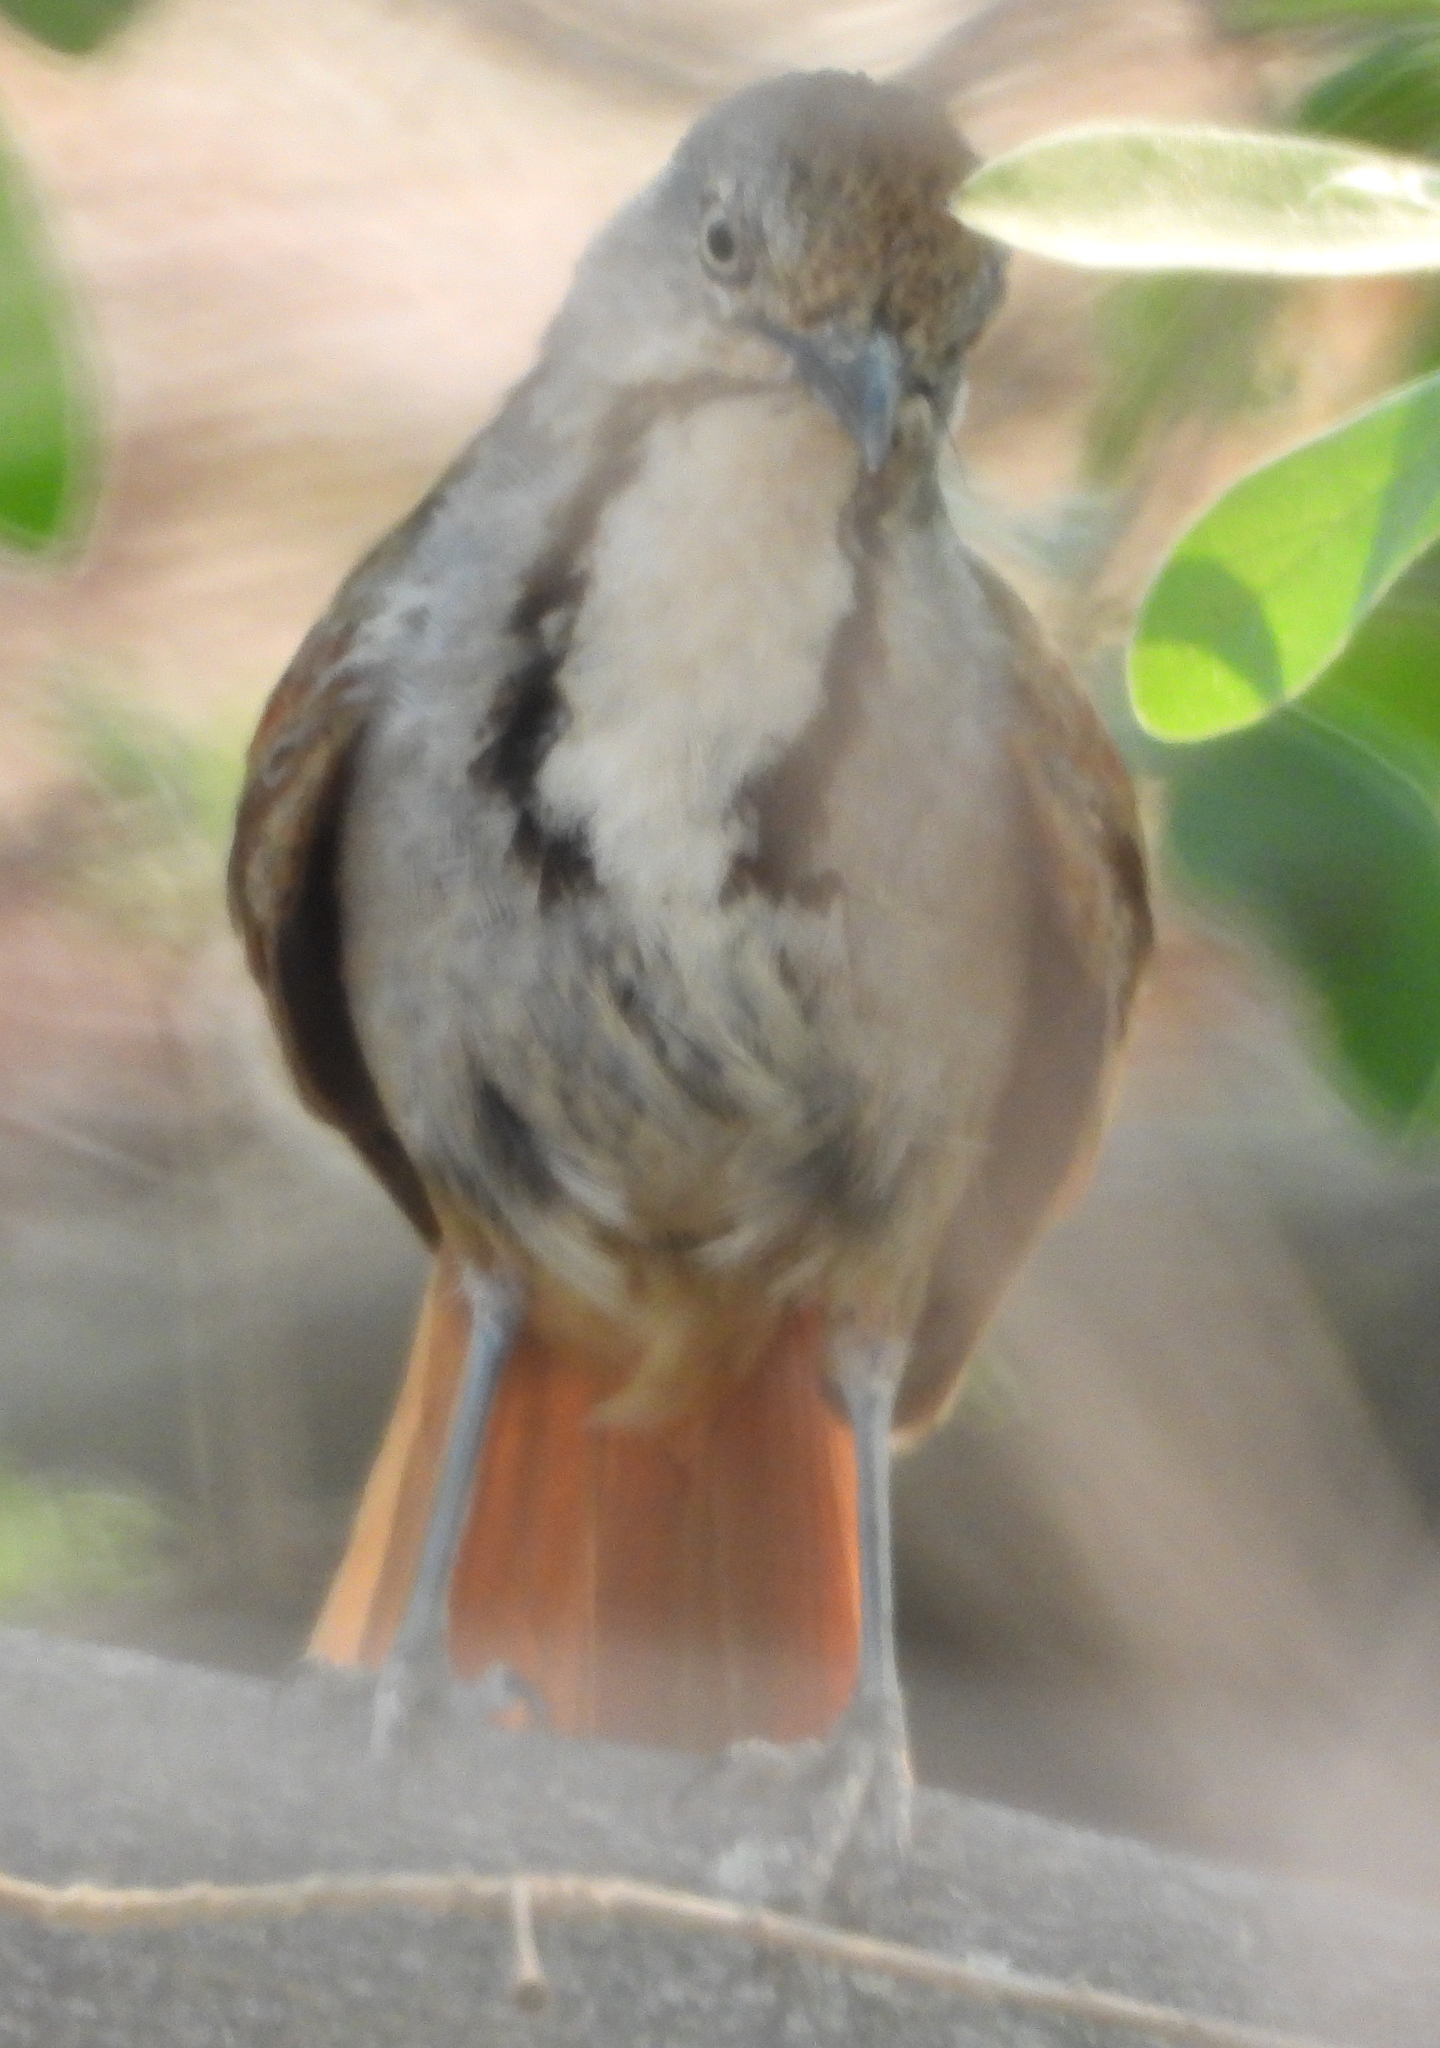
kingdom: Animalia
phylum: Chordata
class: Aves
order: Passeriformes
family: Muscicapidae
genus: Cichladusa
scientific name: Cichladusa arquata
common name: Collared palm thrush
